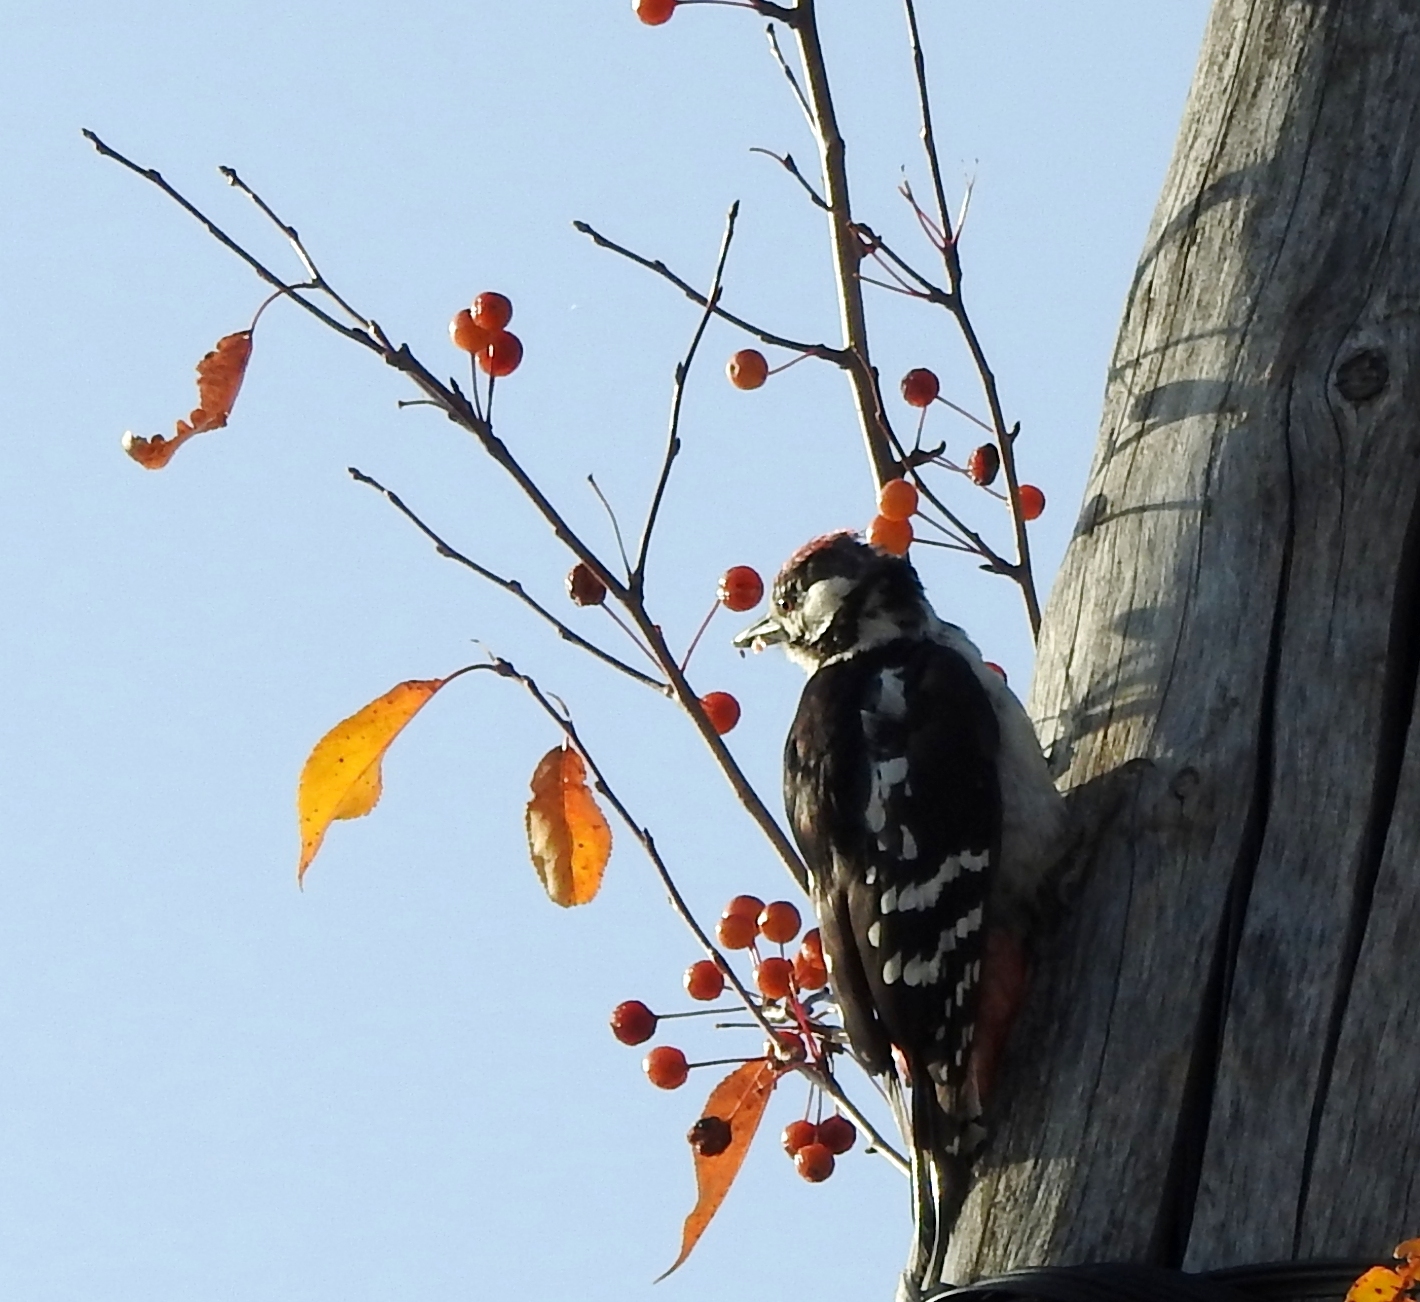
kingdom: Animalia
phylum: Chordata
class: Aves
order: Piciformes
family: Picidae
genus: Dendrocopos
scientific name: Dendrocopos major
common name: Great spotted woodpecker
